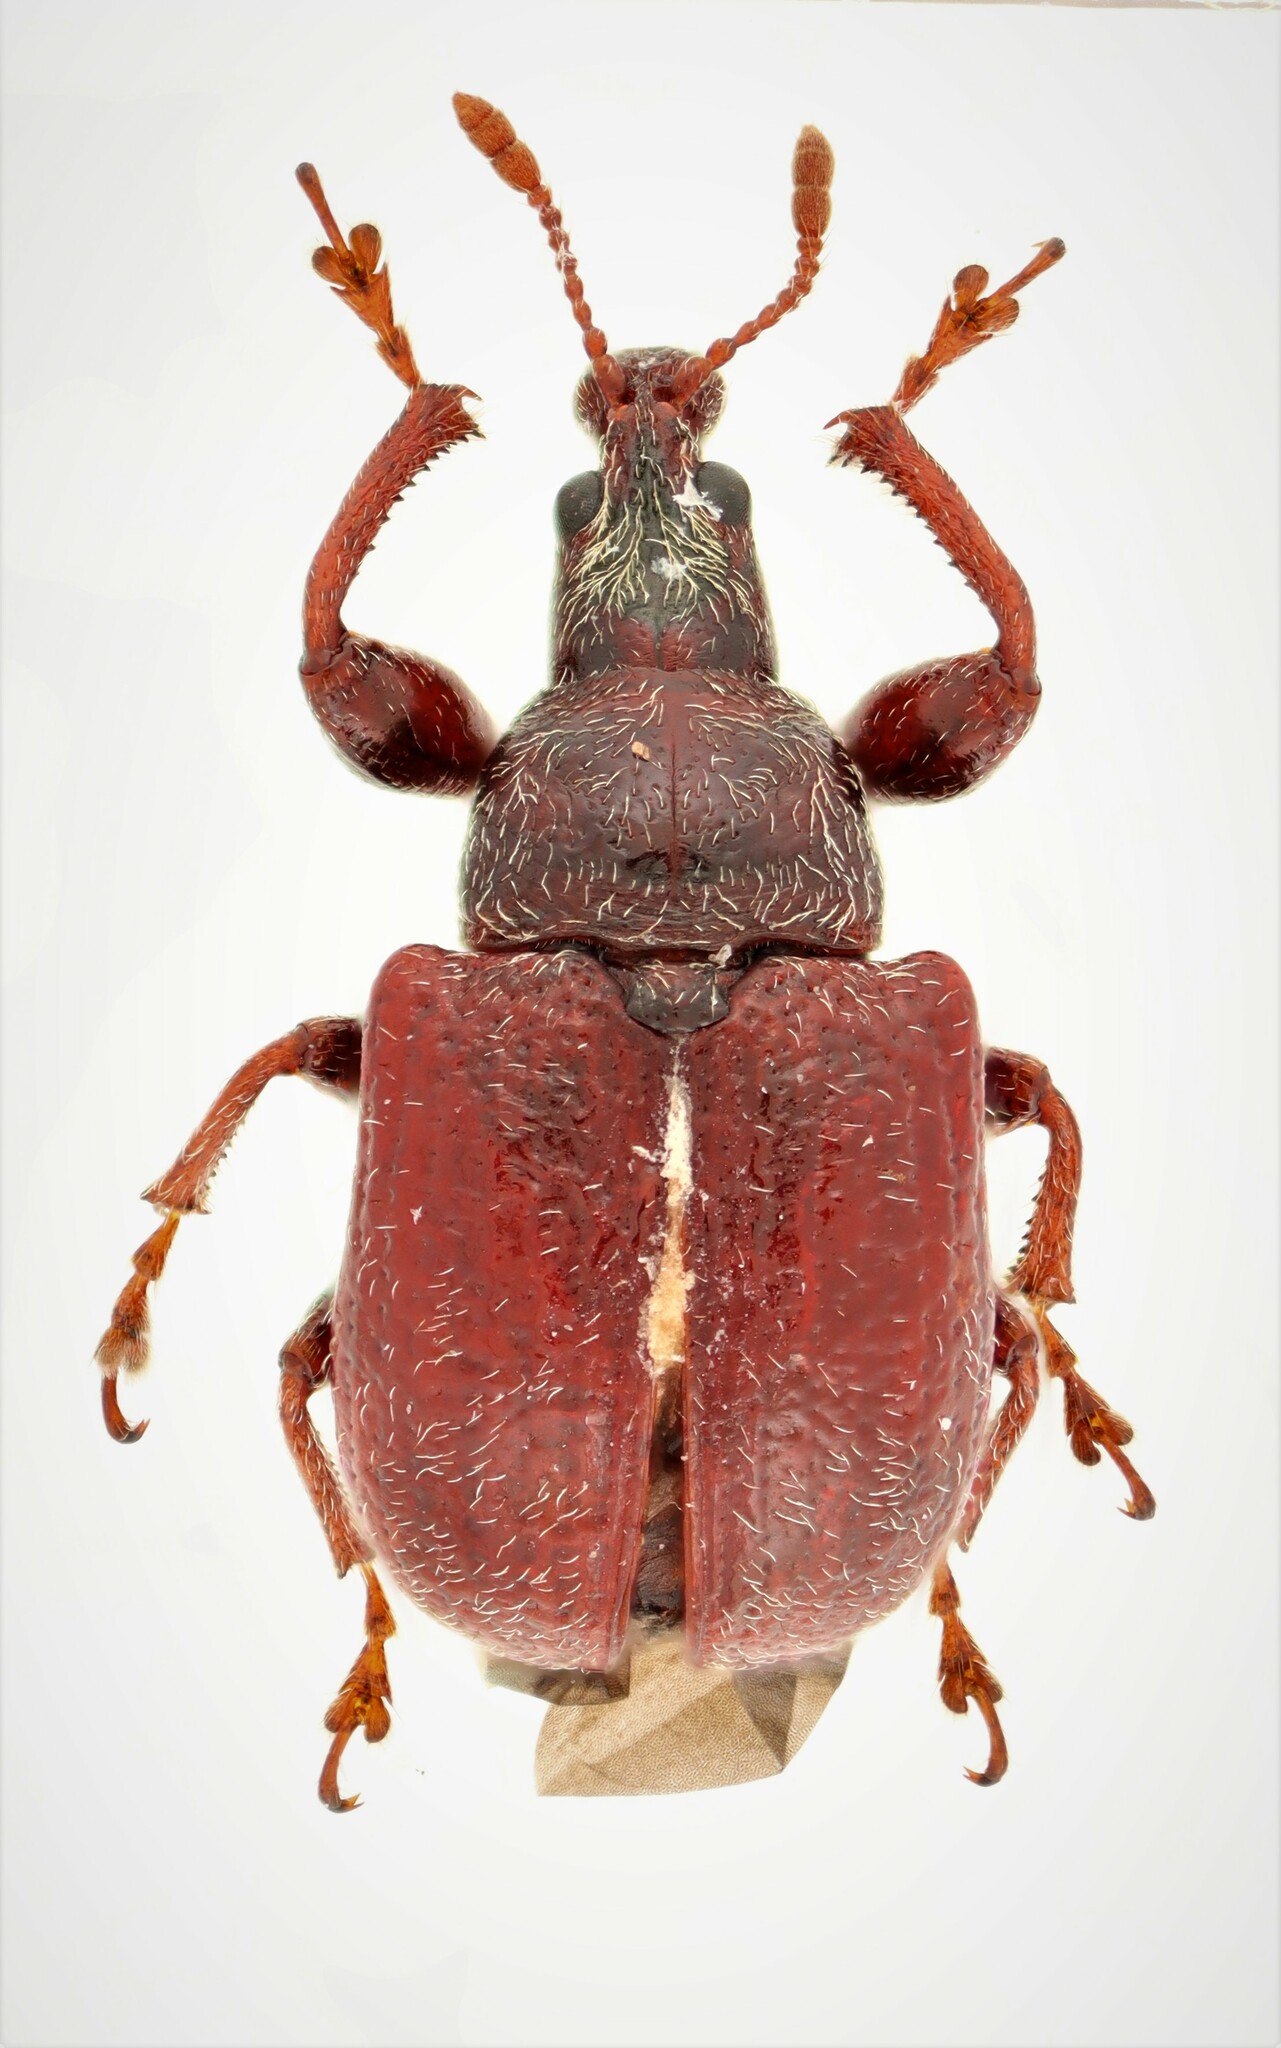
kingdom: Animalia
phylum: Arthropoda
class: Insecta
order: Coleoptera
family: Attelabidae
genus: Himatolabus
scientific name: Himatolabus pubescens
